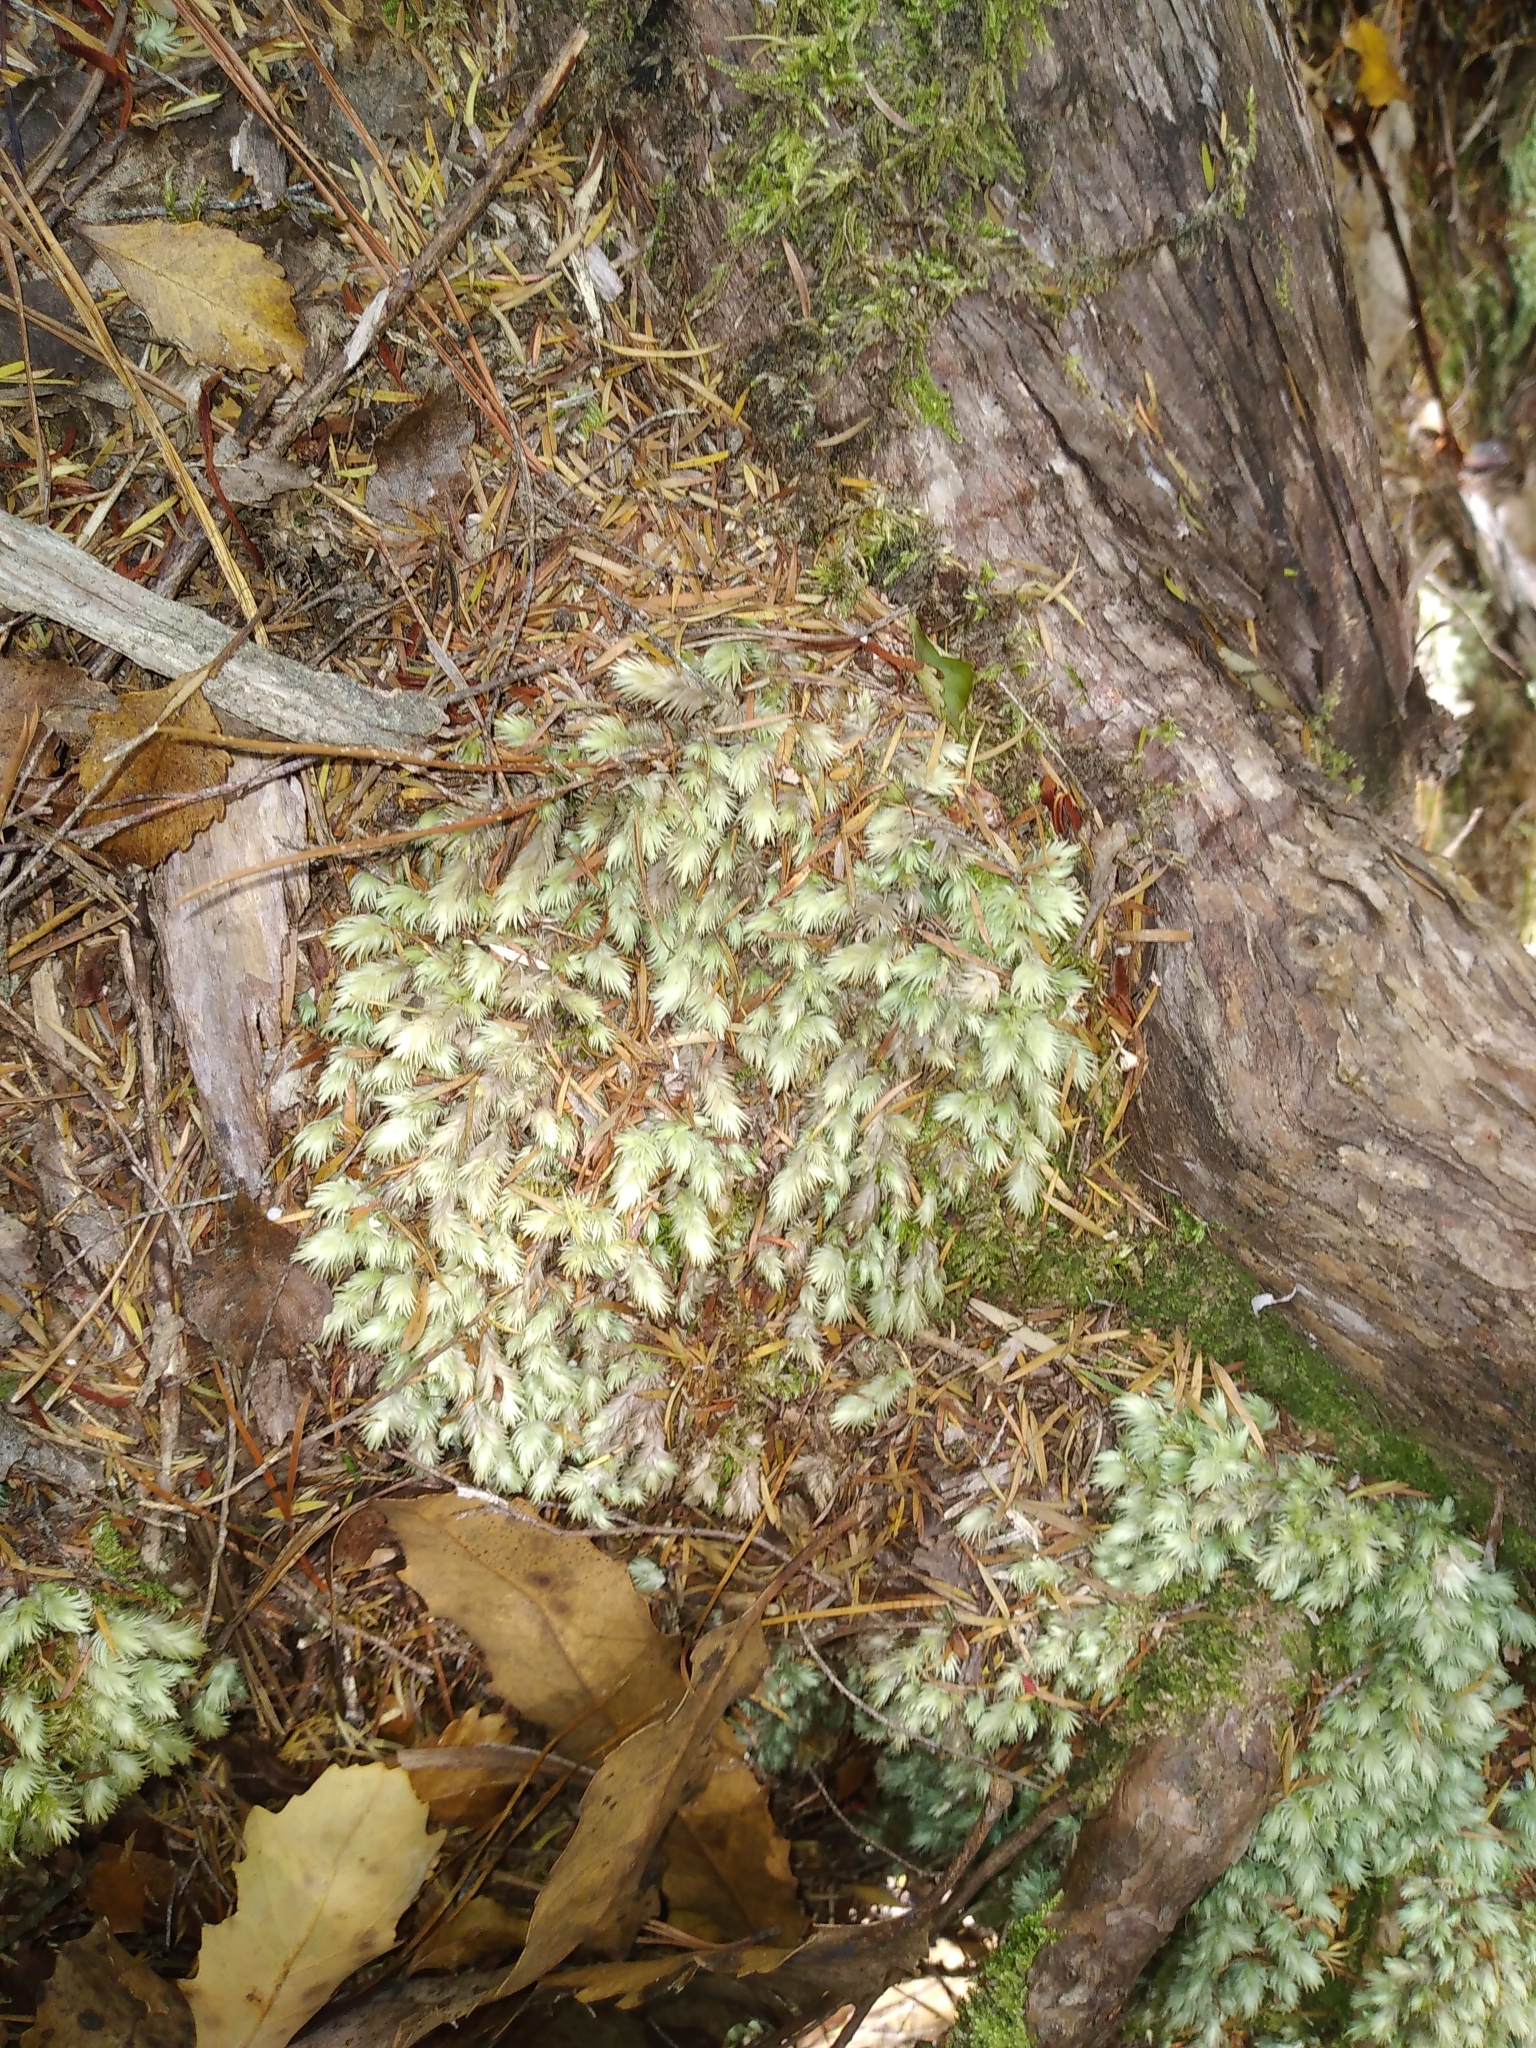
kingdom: Plantae
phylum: Bryophyta
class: Bryopsida
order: Dicranales
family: Leucobryaceae
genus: Leucobryum
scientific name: Leucobryum javense
